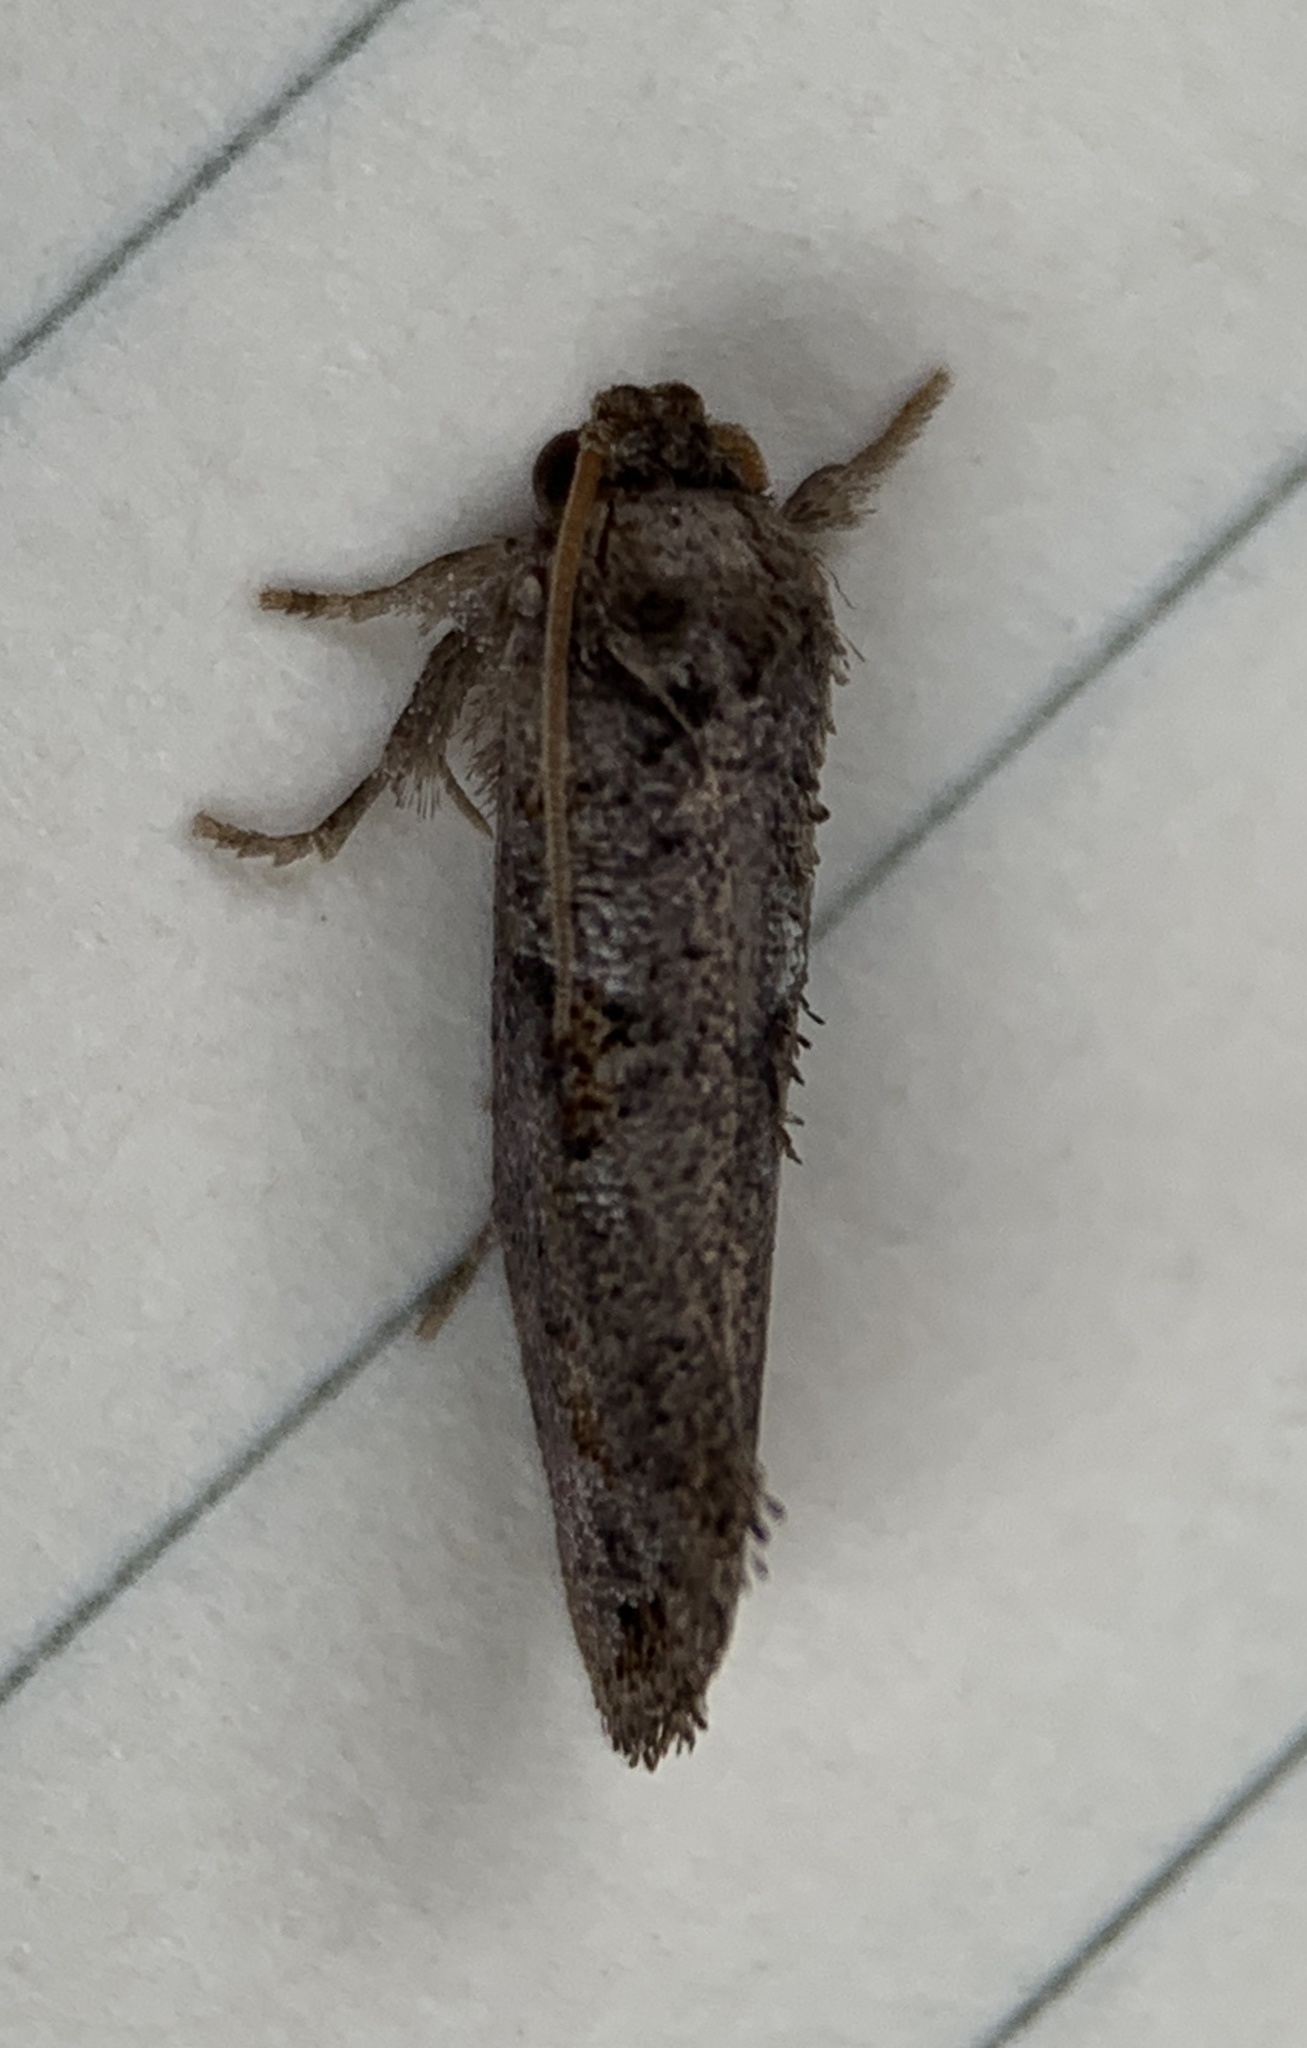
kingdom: Animalia
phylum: Arthropoda
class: Insecta
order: Lepidoptera
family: Tineidae
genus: Acrolophus
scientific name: Acrolophus piger
